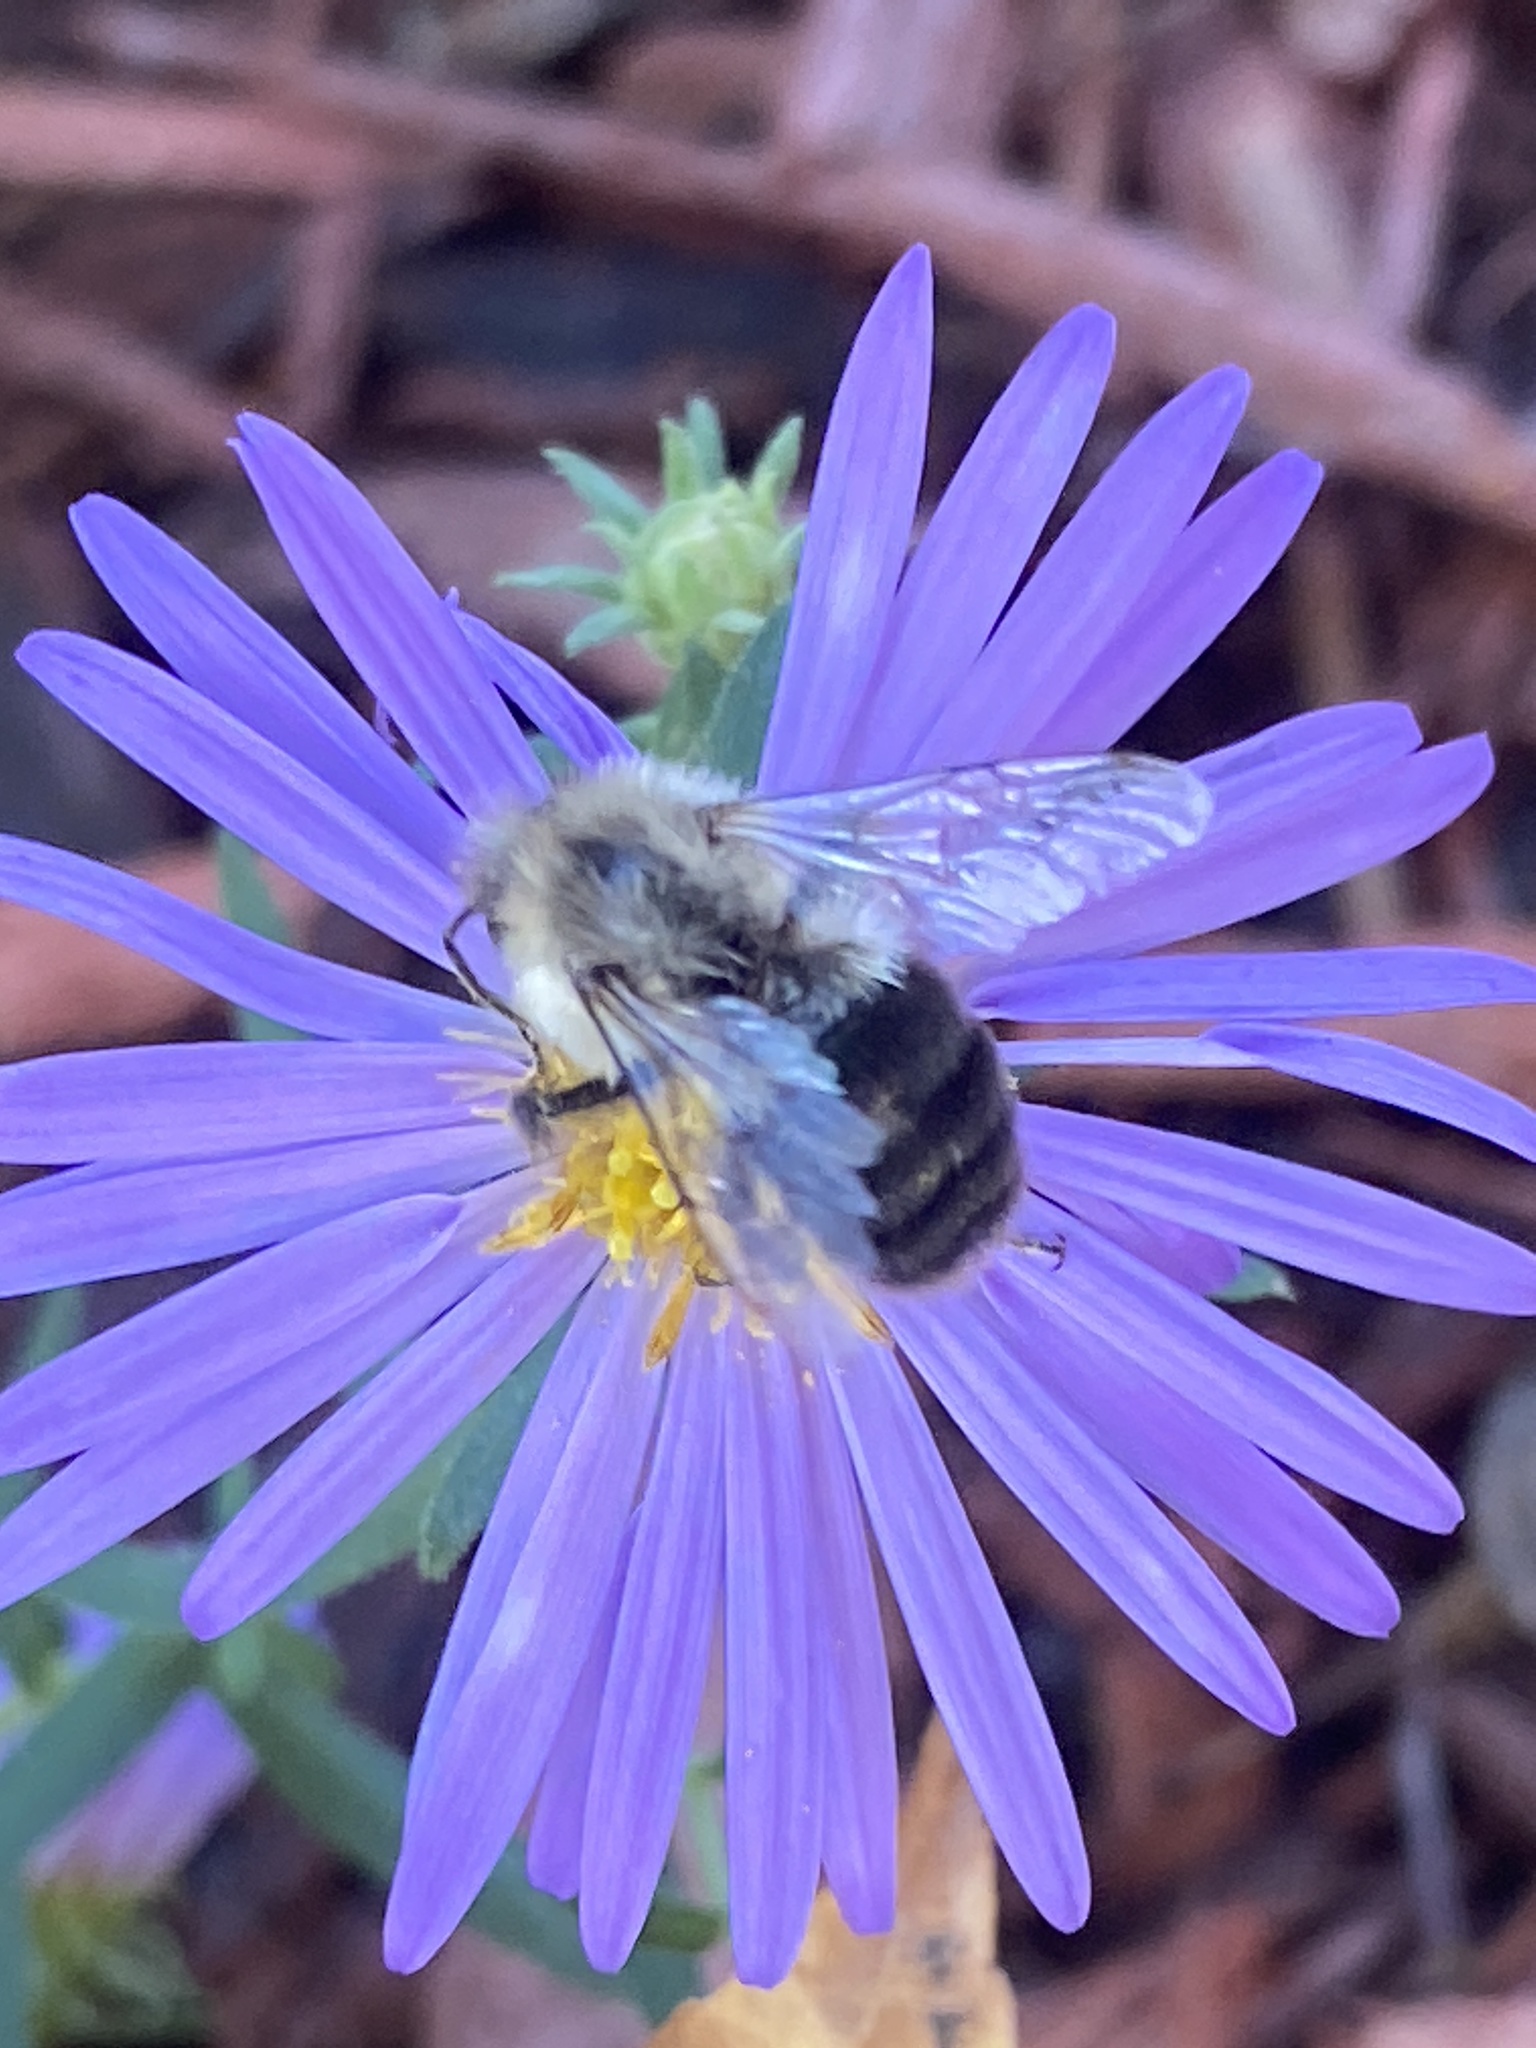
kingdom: Animalia
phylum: Arthropoda
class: Insecta
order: Hymenoptera
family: Apidae
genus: Bombus
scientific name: Bombus impatiens
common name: Common eastern bumble bee
